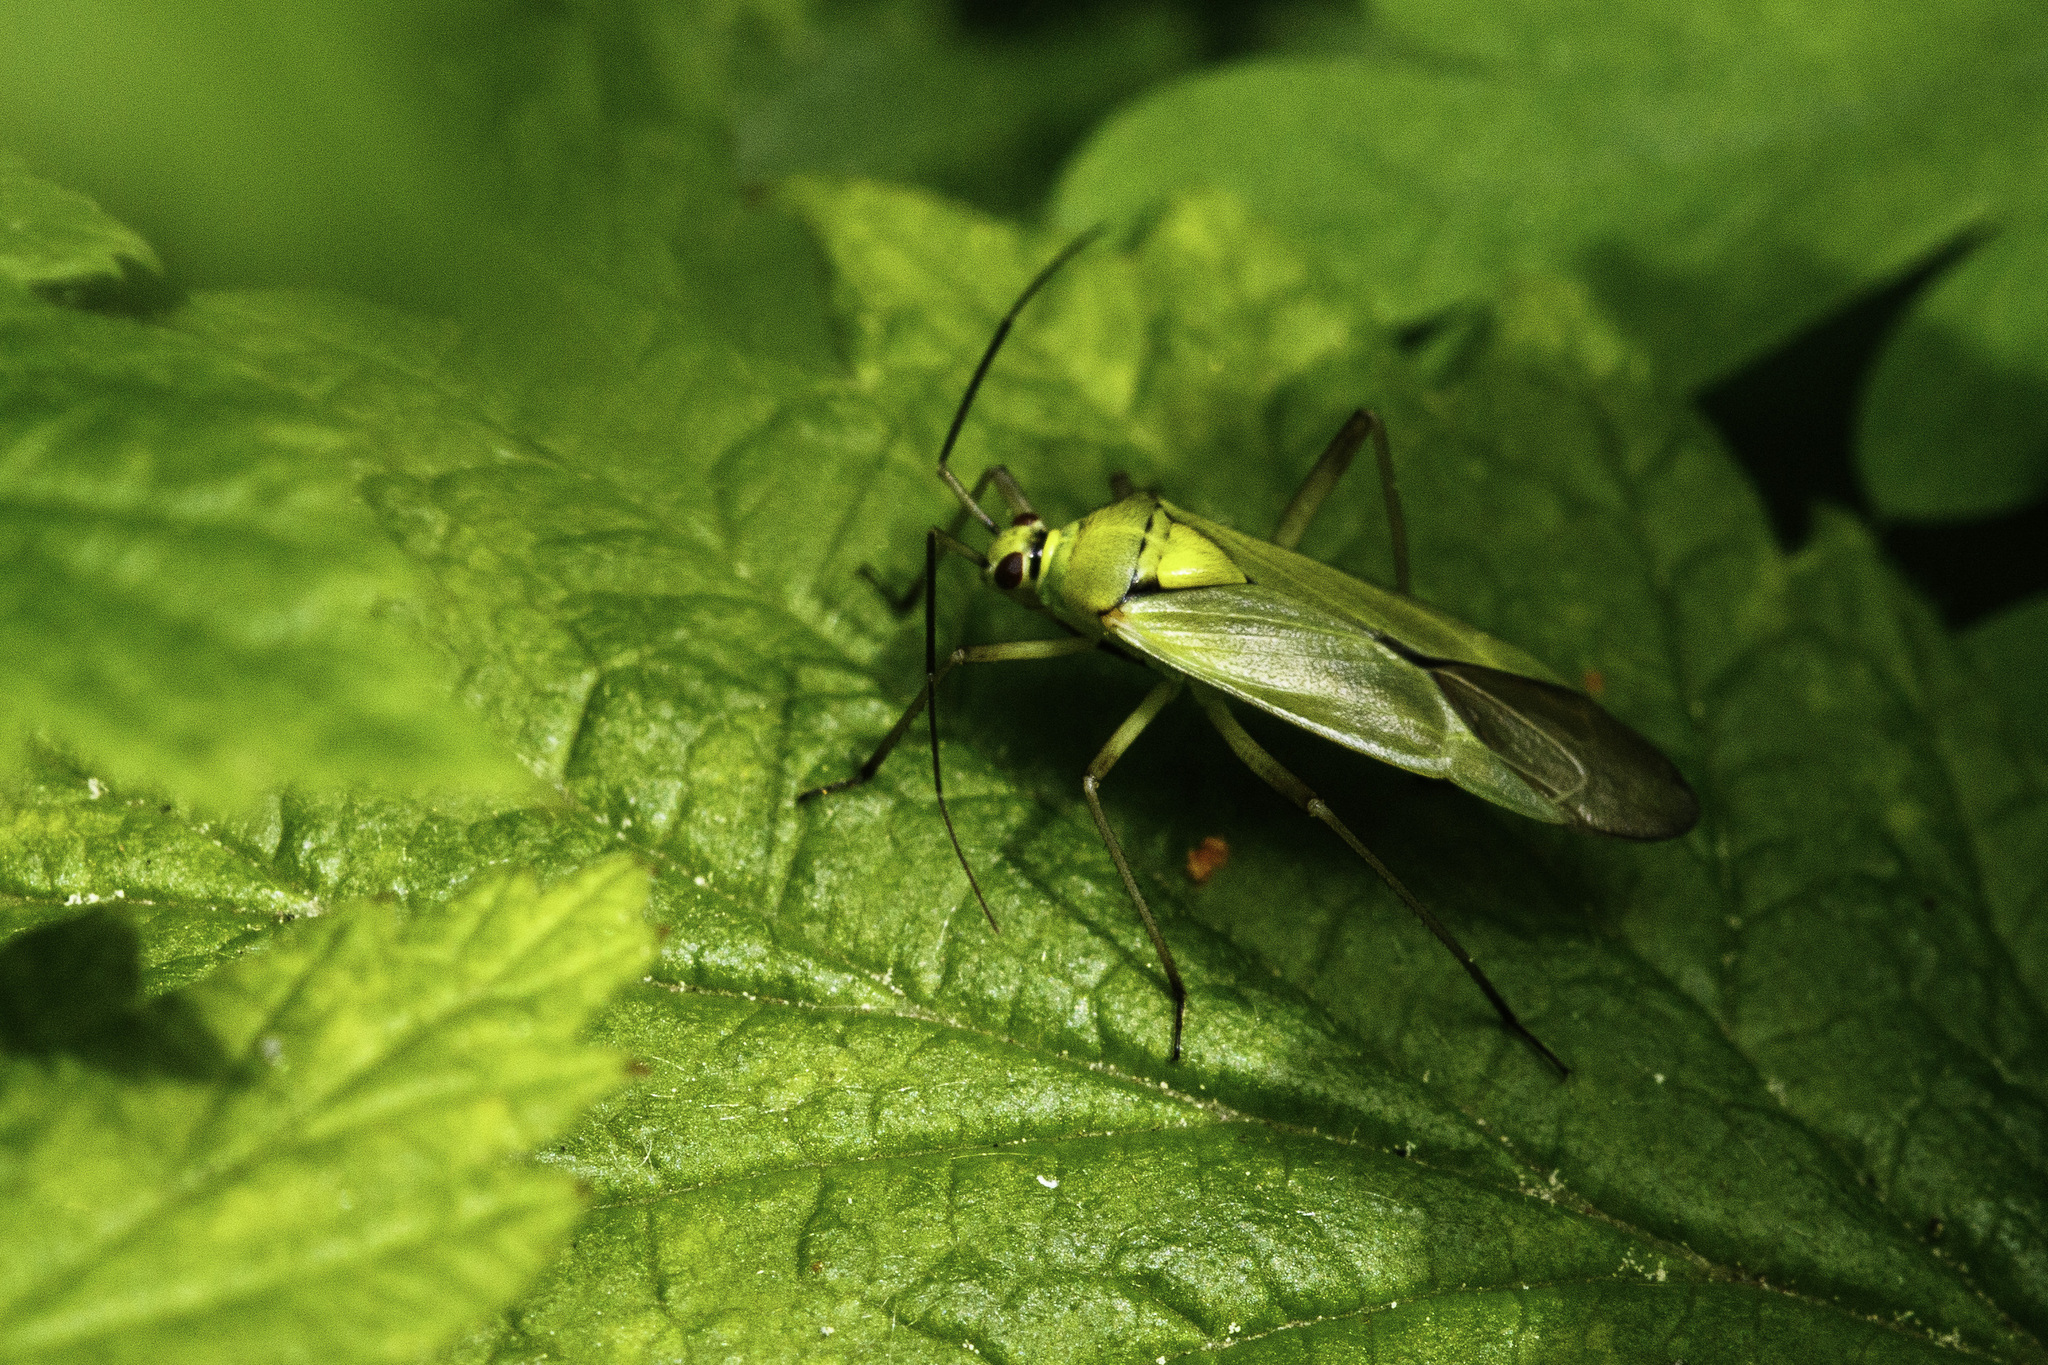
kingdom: Animalia
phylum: Arthropoda
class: Insecta
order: Hemiptera
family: Miridae
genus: Calocoris
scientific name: Calocoris alpestris
